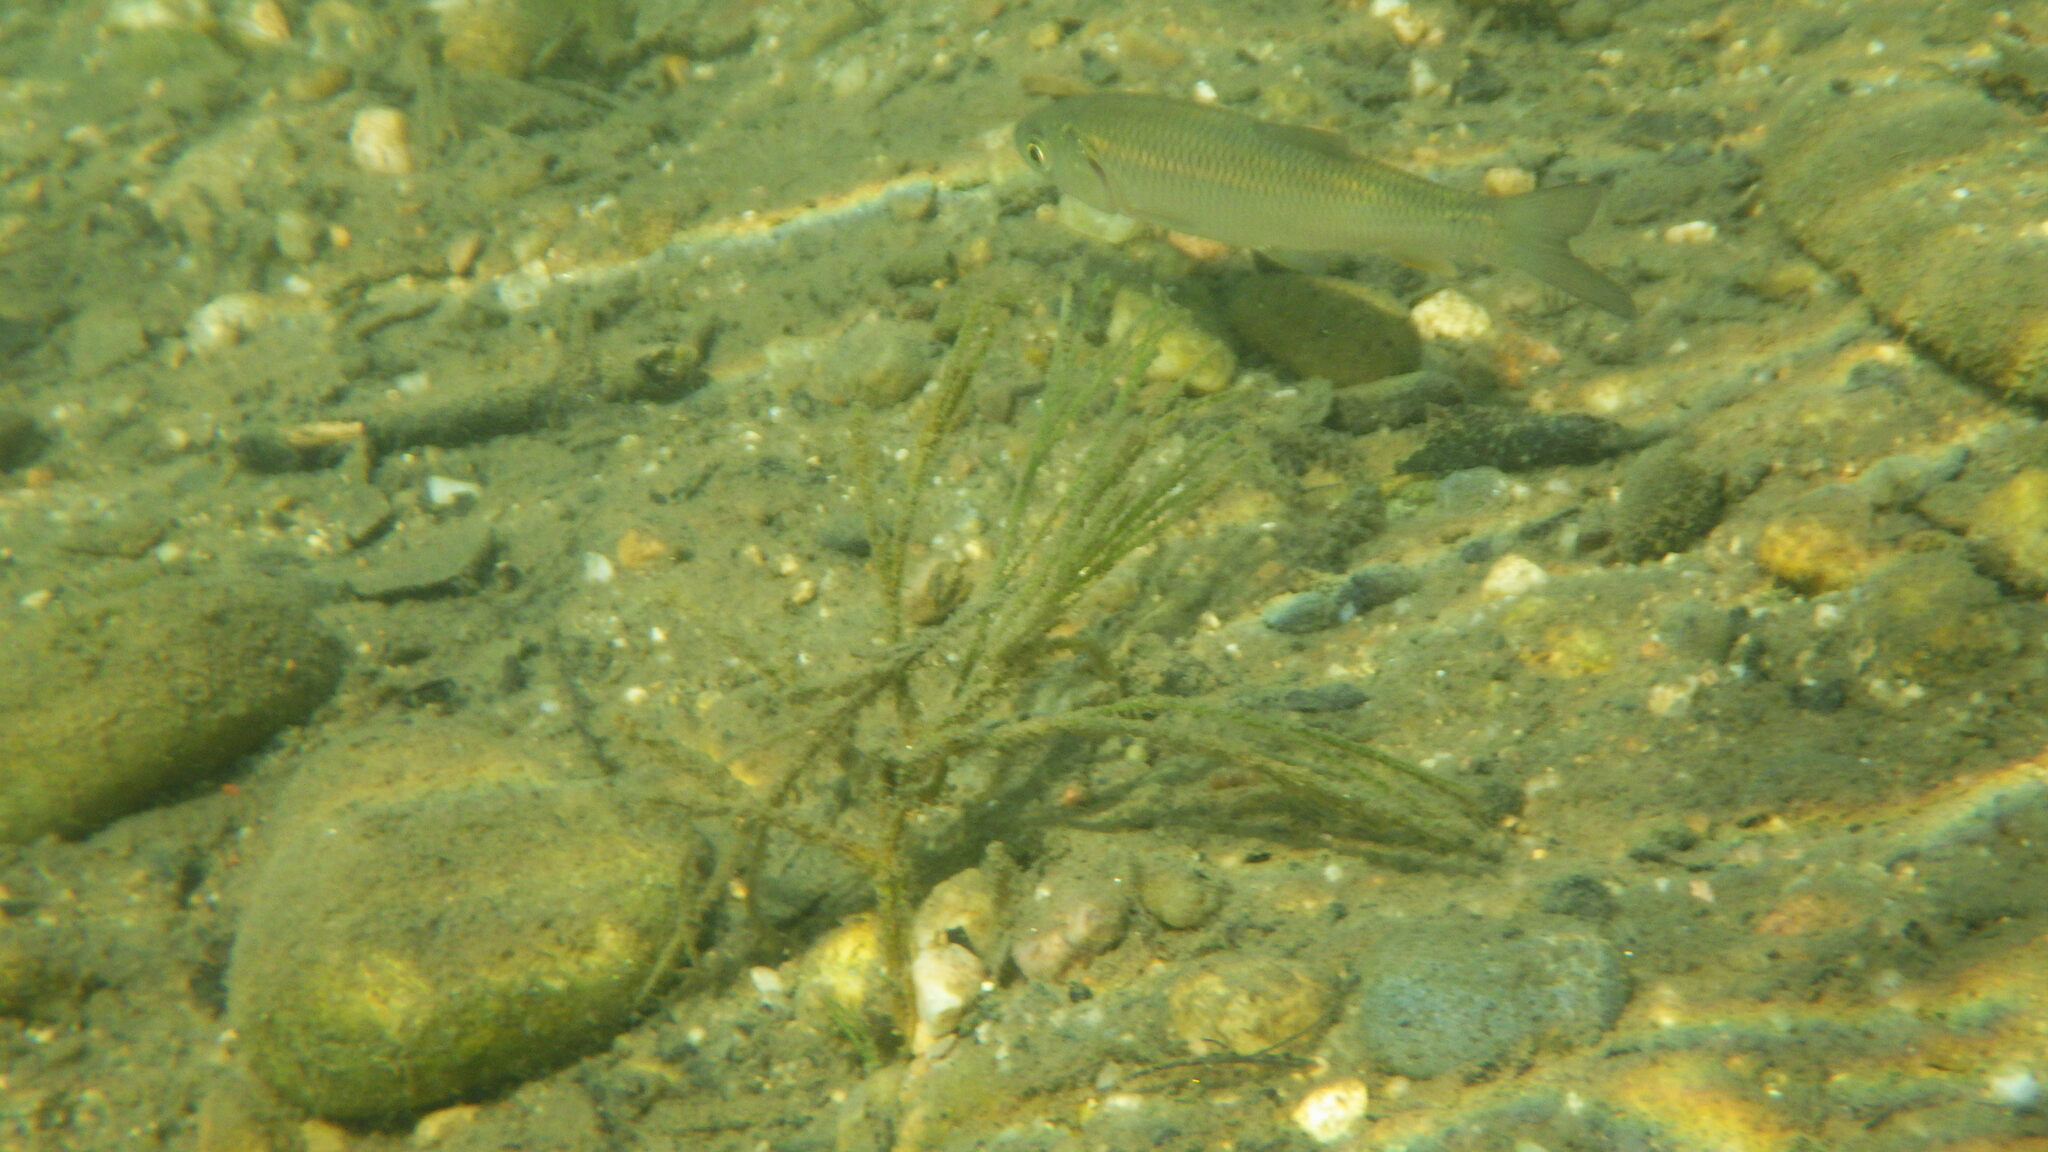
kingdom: Animalia
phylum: Chordata
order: Cypriniformes
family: Cyprinidae
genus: Squalius
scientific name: Squalius cephalus
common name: Chub
